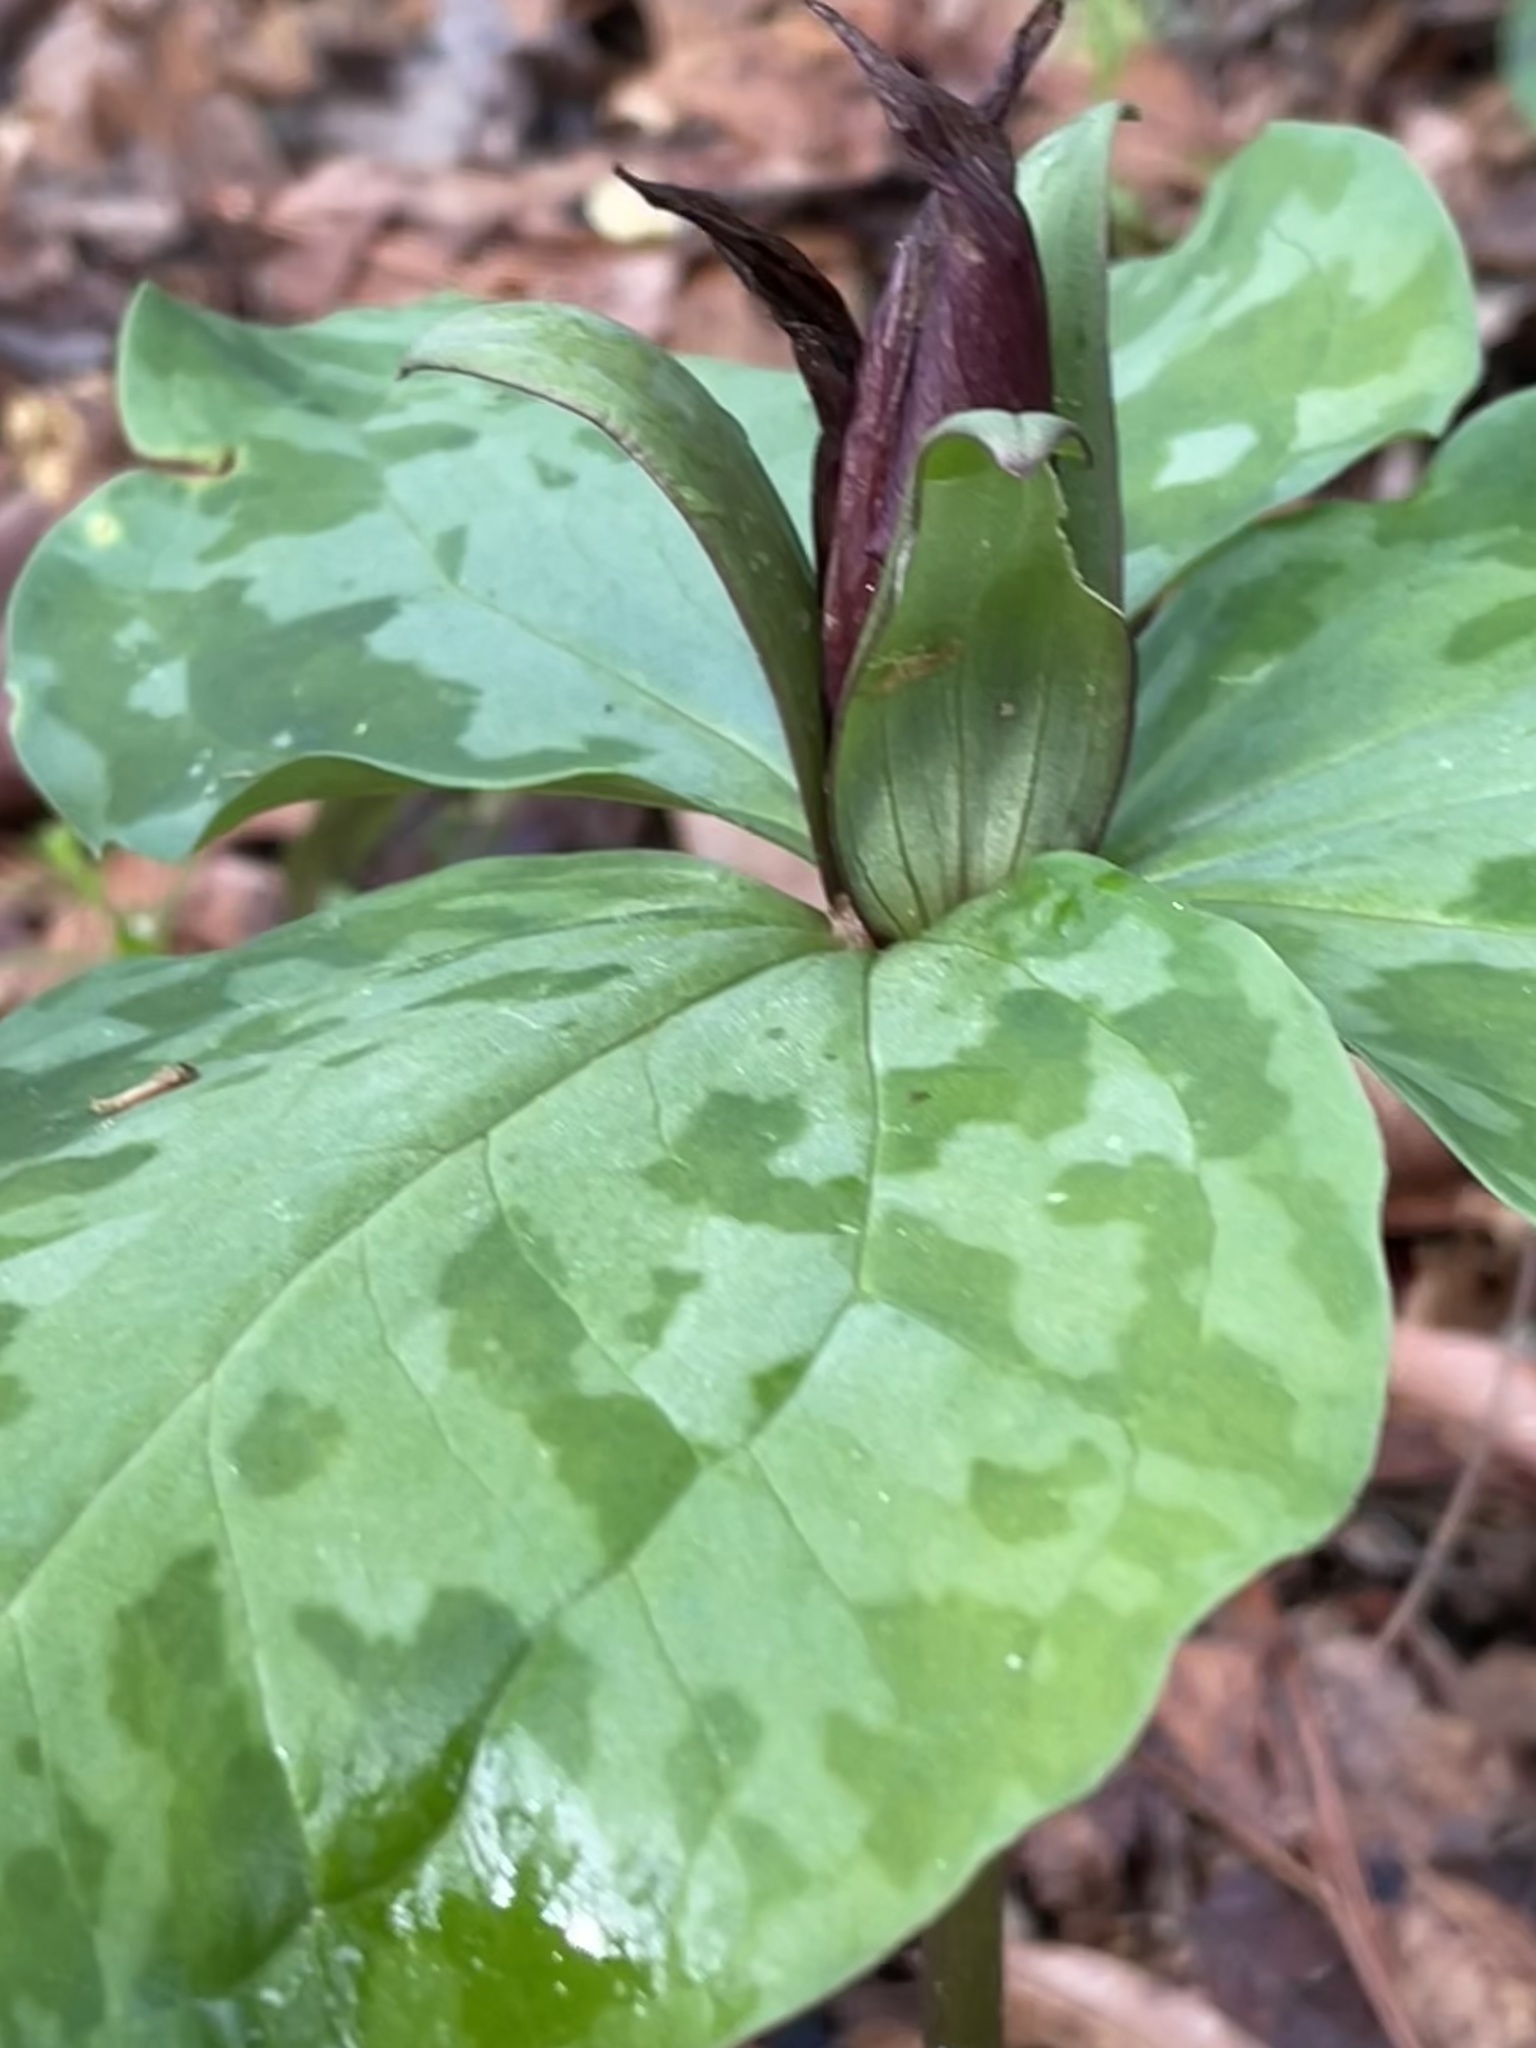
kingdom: Plantae
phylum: Tracheophyta
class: Liliopsida
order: Liliales
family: Melanthiaceae
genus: Trillium
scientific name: Trillium cuneatum
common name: Cuneate trillium
